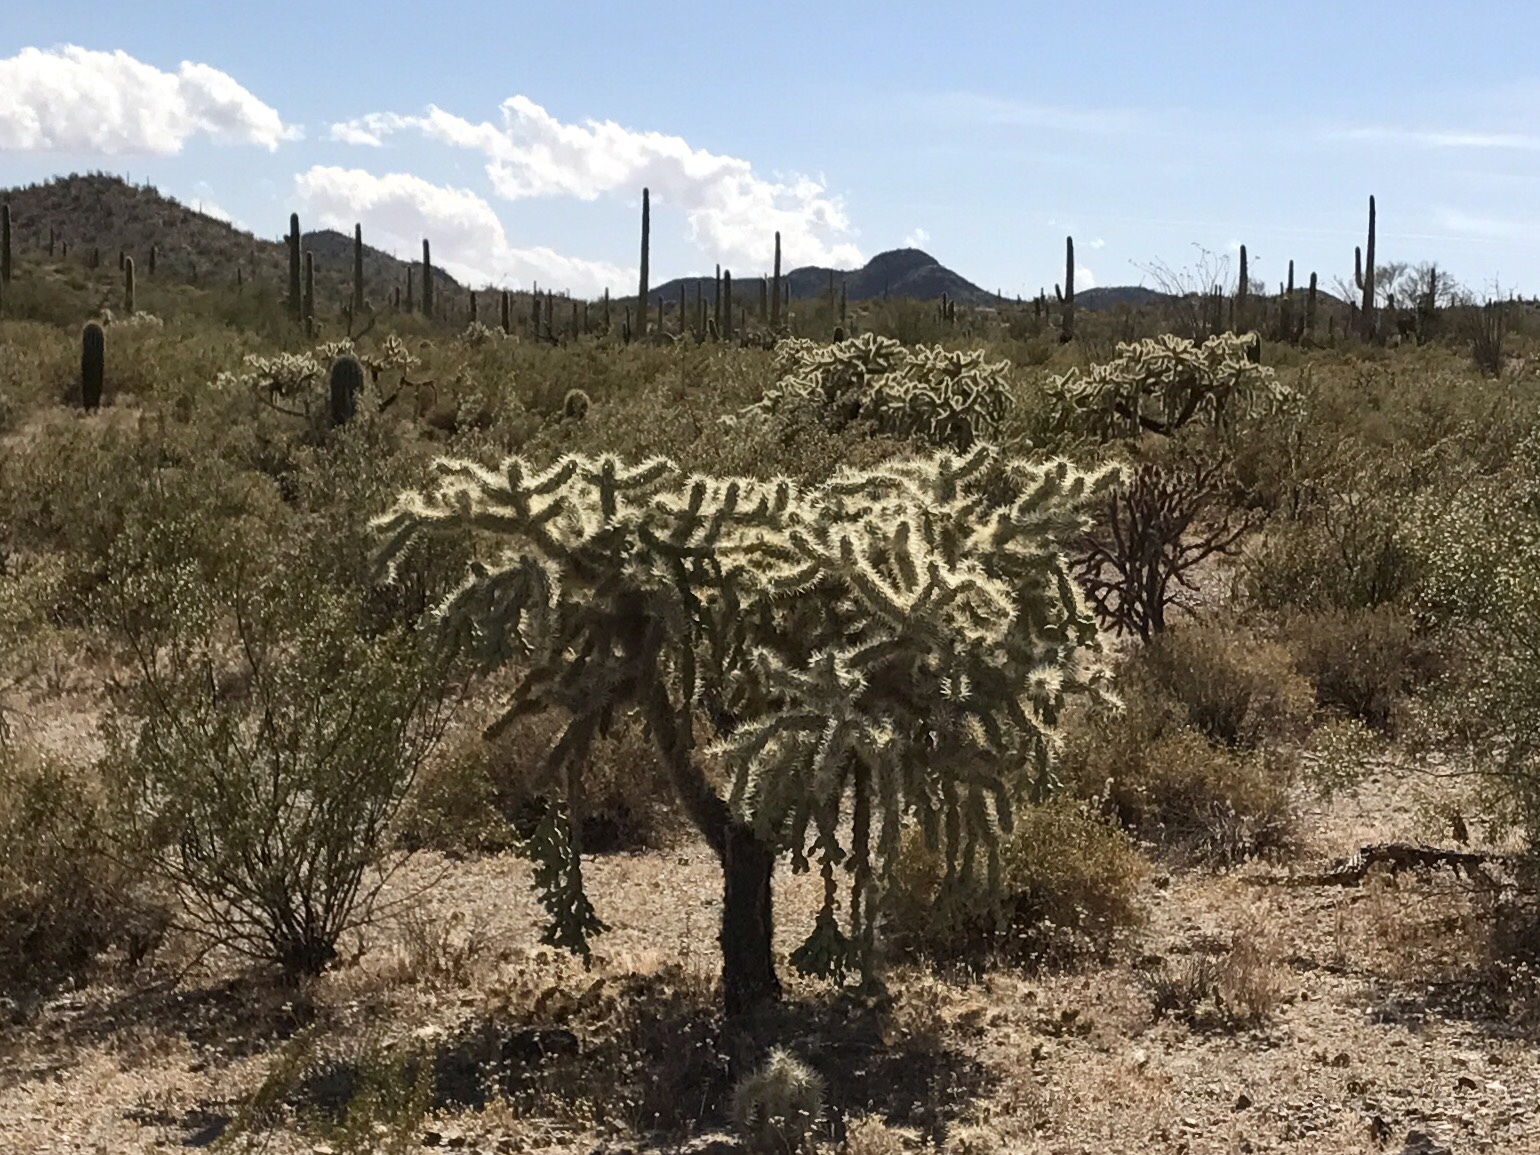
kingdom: Plantae
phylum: Tracheophyta
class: Magnoliopsida
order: Caryophyllales
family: Cactaceae
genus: Cylindropuntia
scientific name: Cylindropuntia fulgida
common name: Jumping cholla
